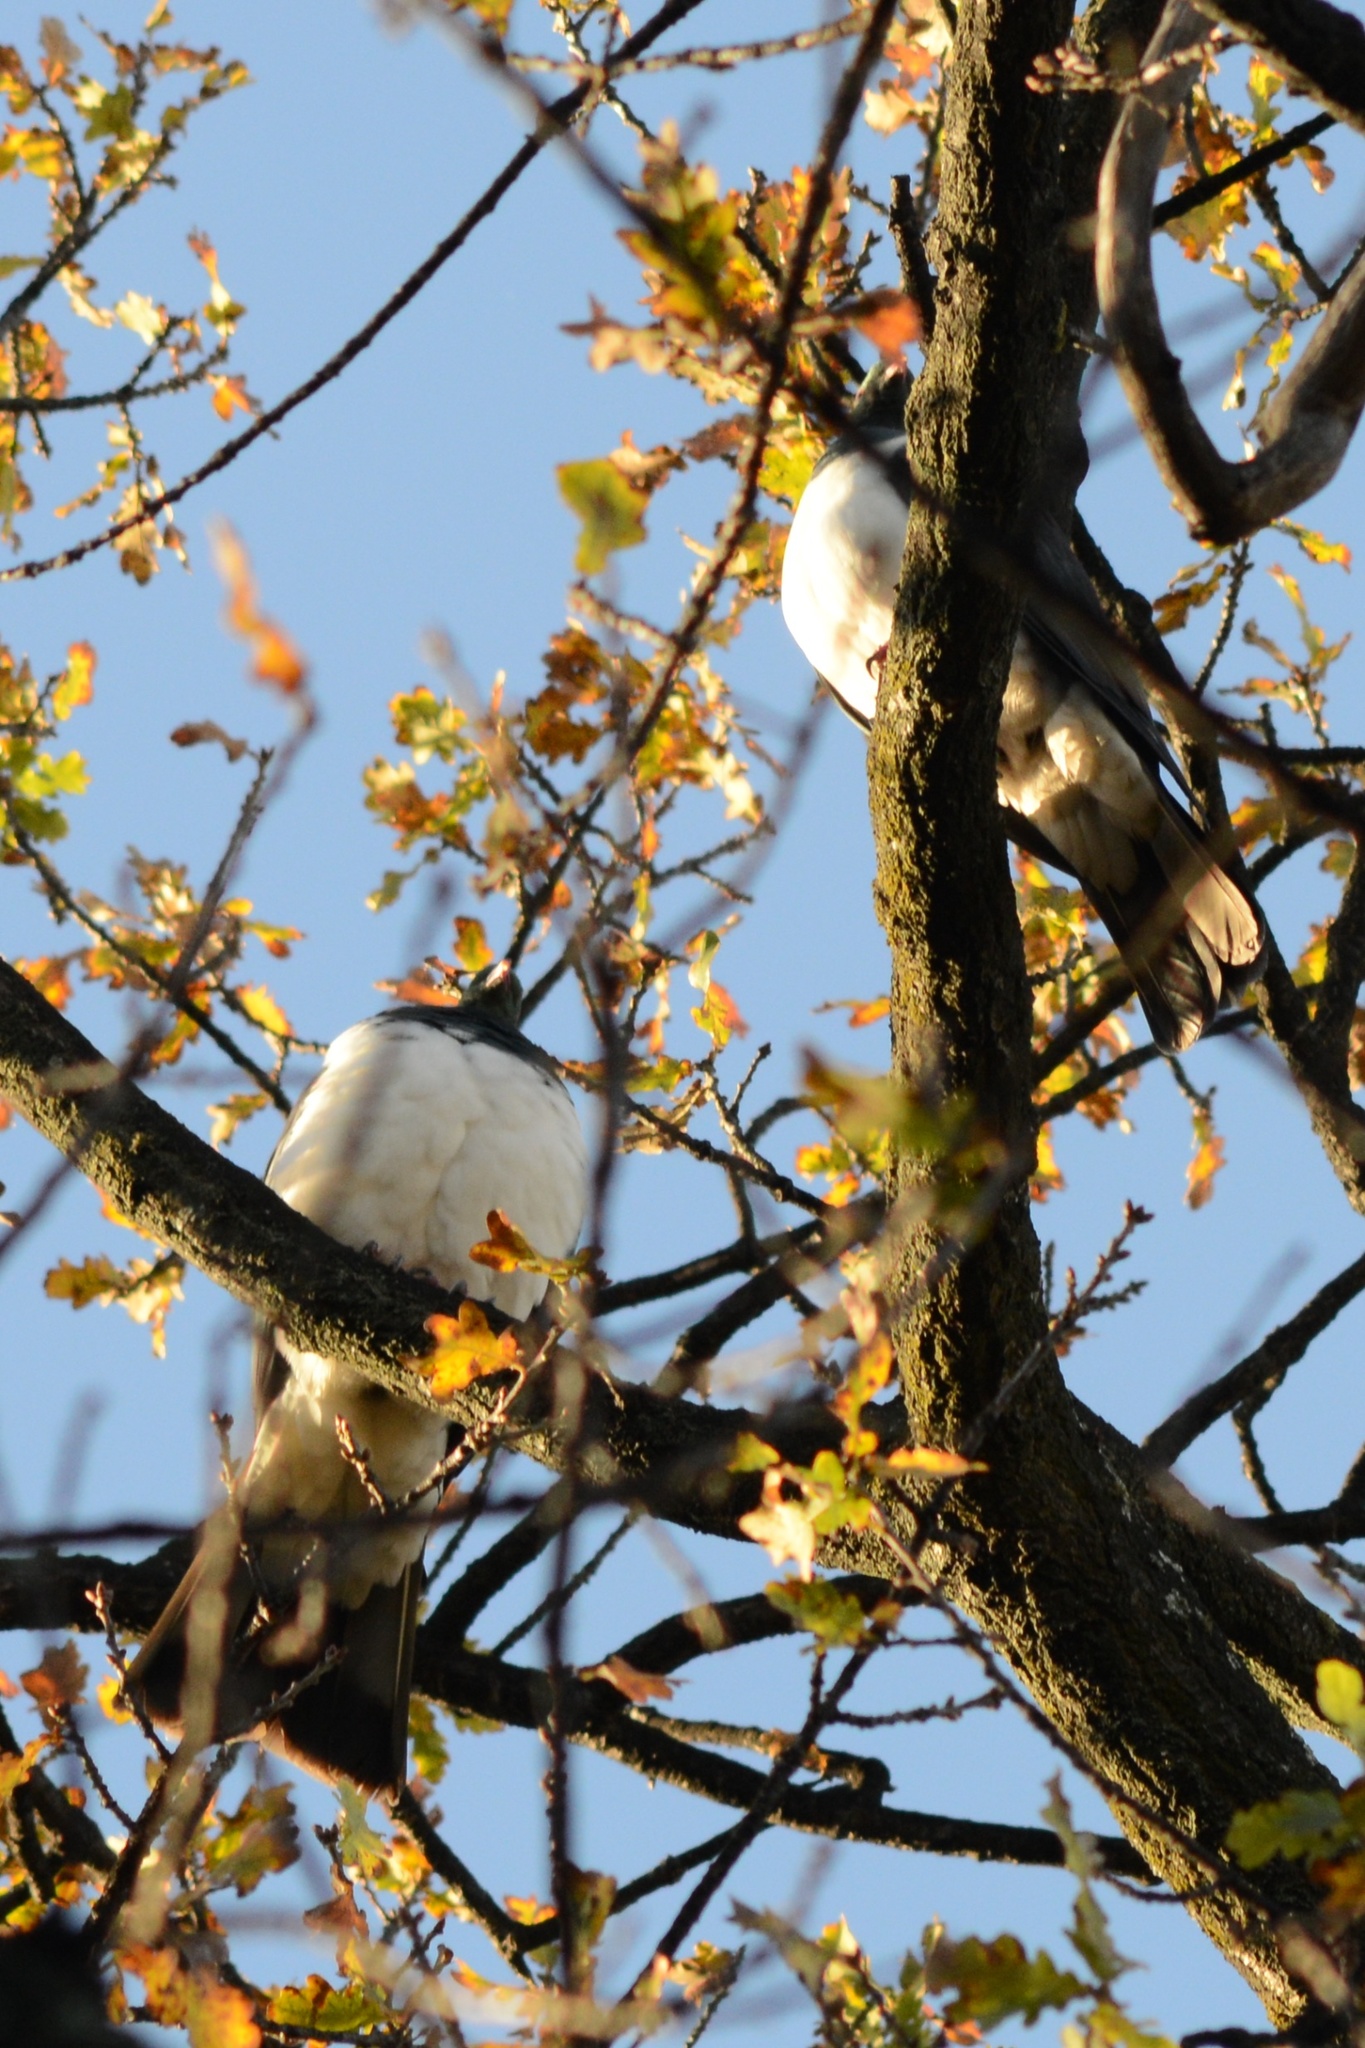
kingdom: Animalia
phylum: Chordata
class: Aves
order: Columbiformes
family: Columbidae
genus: Hemiphaga
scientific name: Hemiphaga novaeseelandiae
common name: New zealand pigeon
